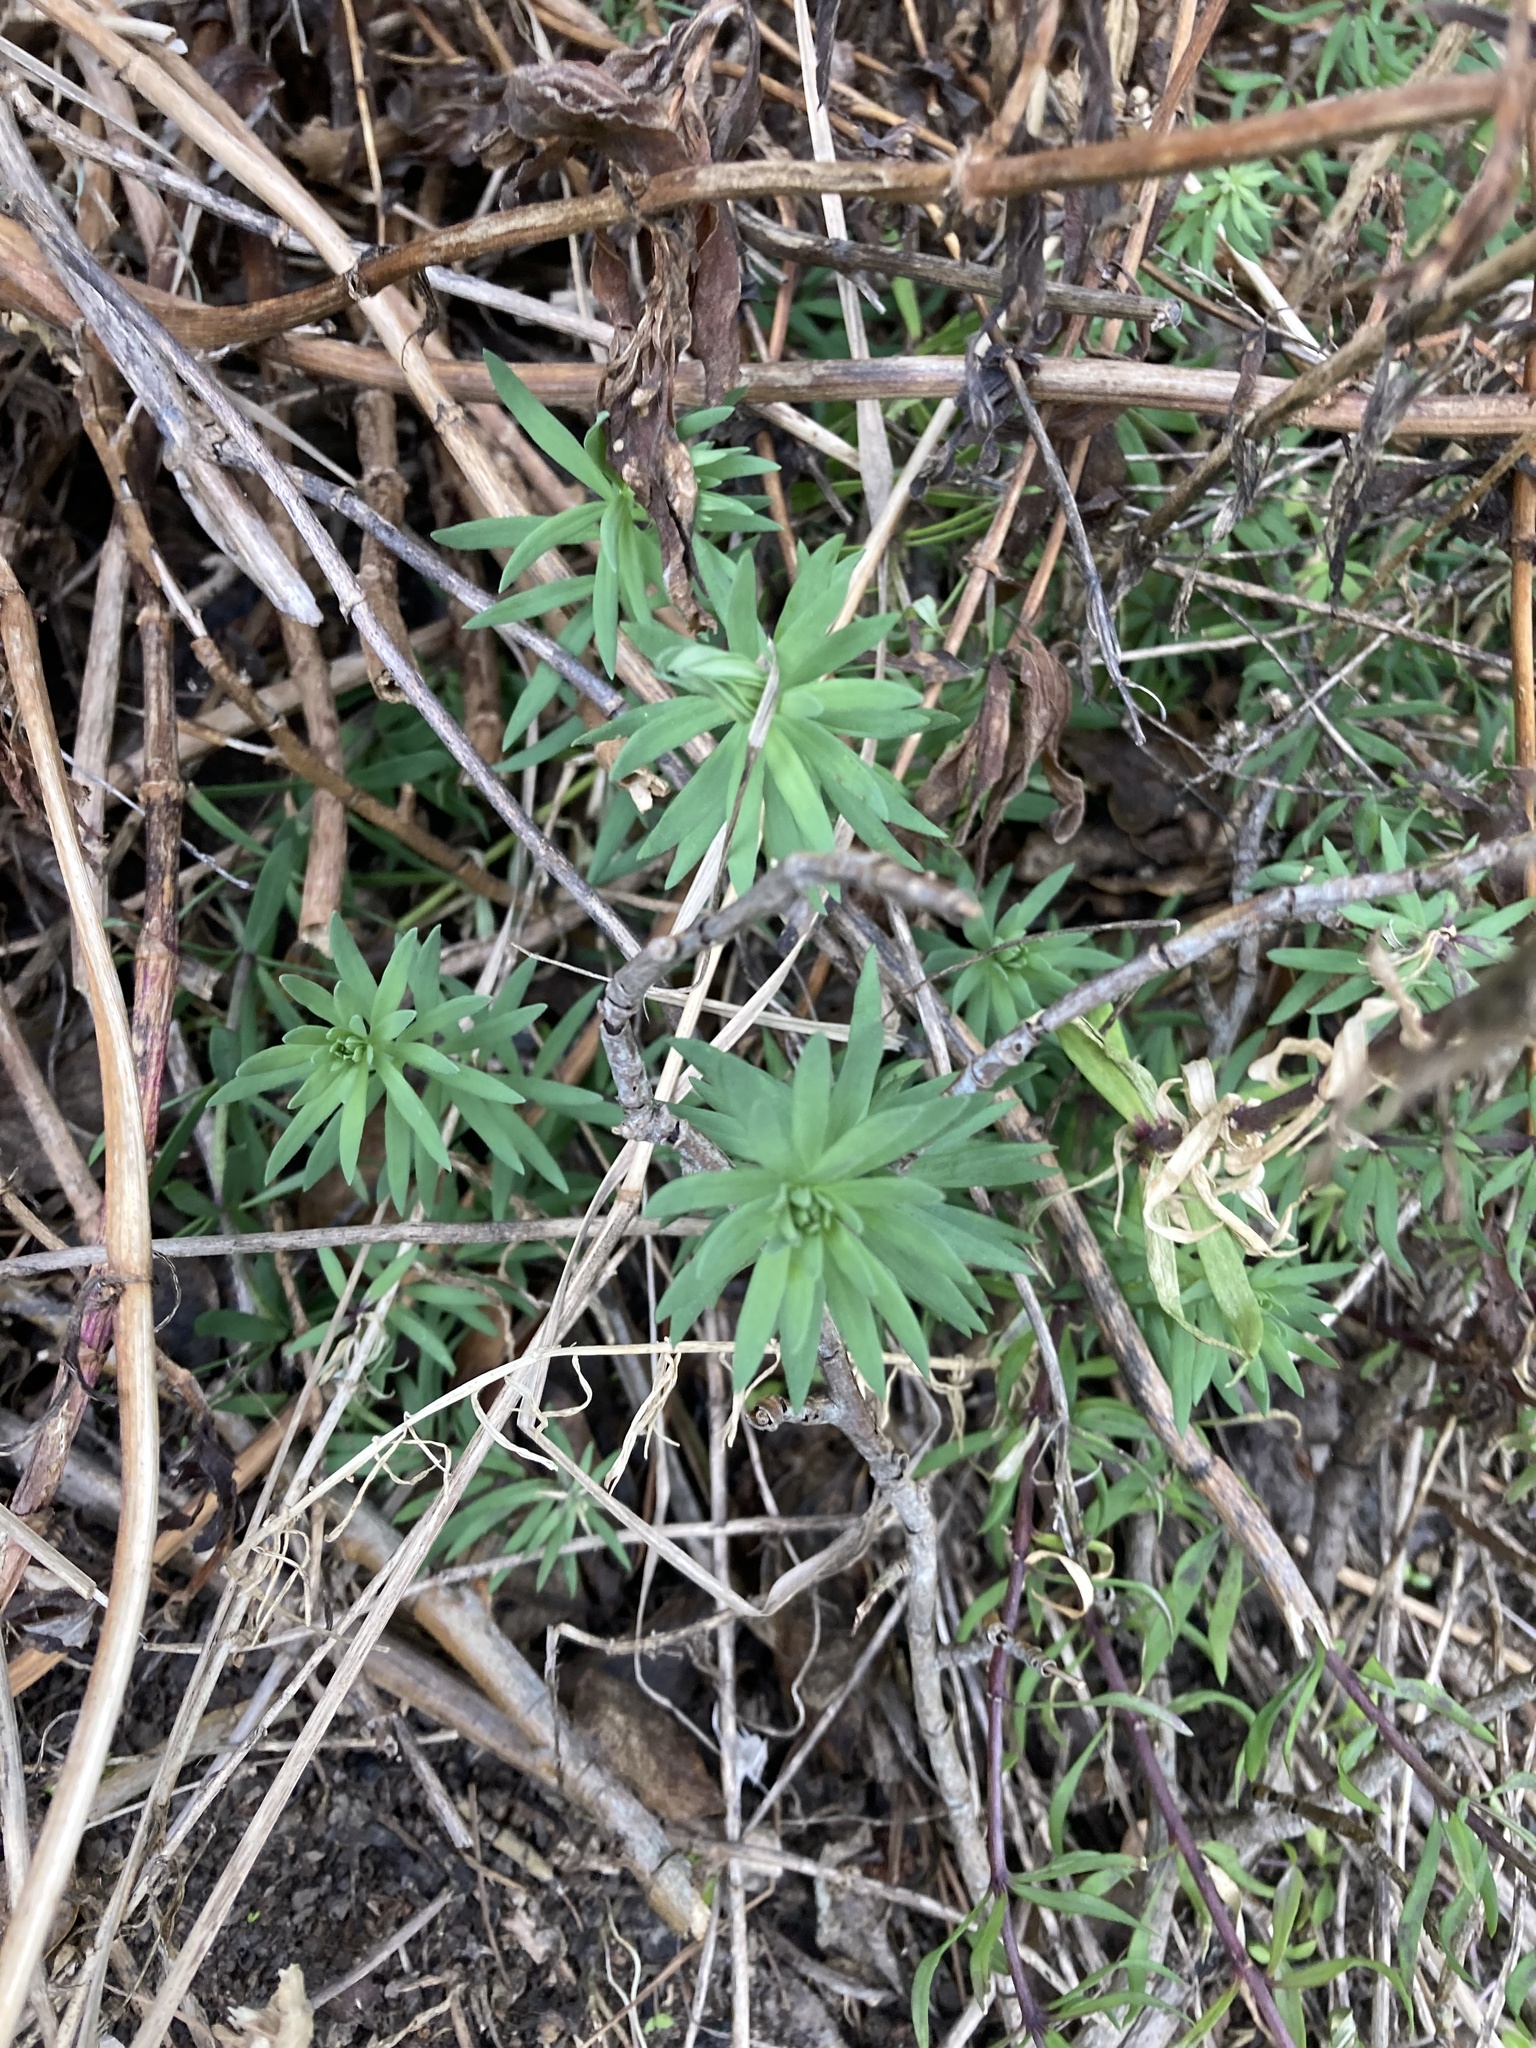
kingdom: Plantae
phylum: Tracheophyta
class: Magnoliopsida
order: Lamiales
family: Plantaginaceae
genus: Linaria
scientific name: Linaria purpurea
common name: Purple toadflax
